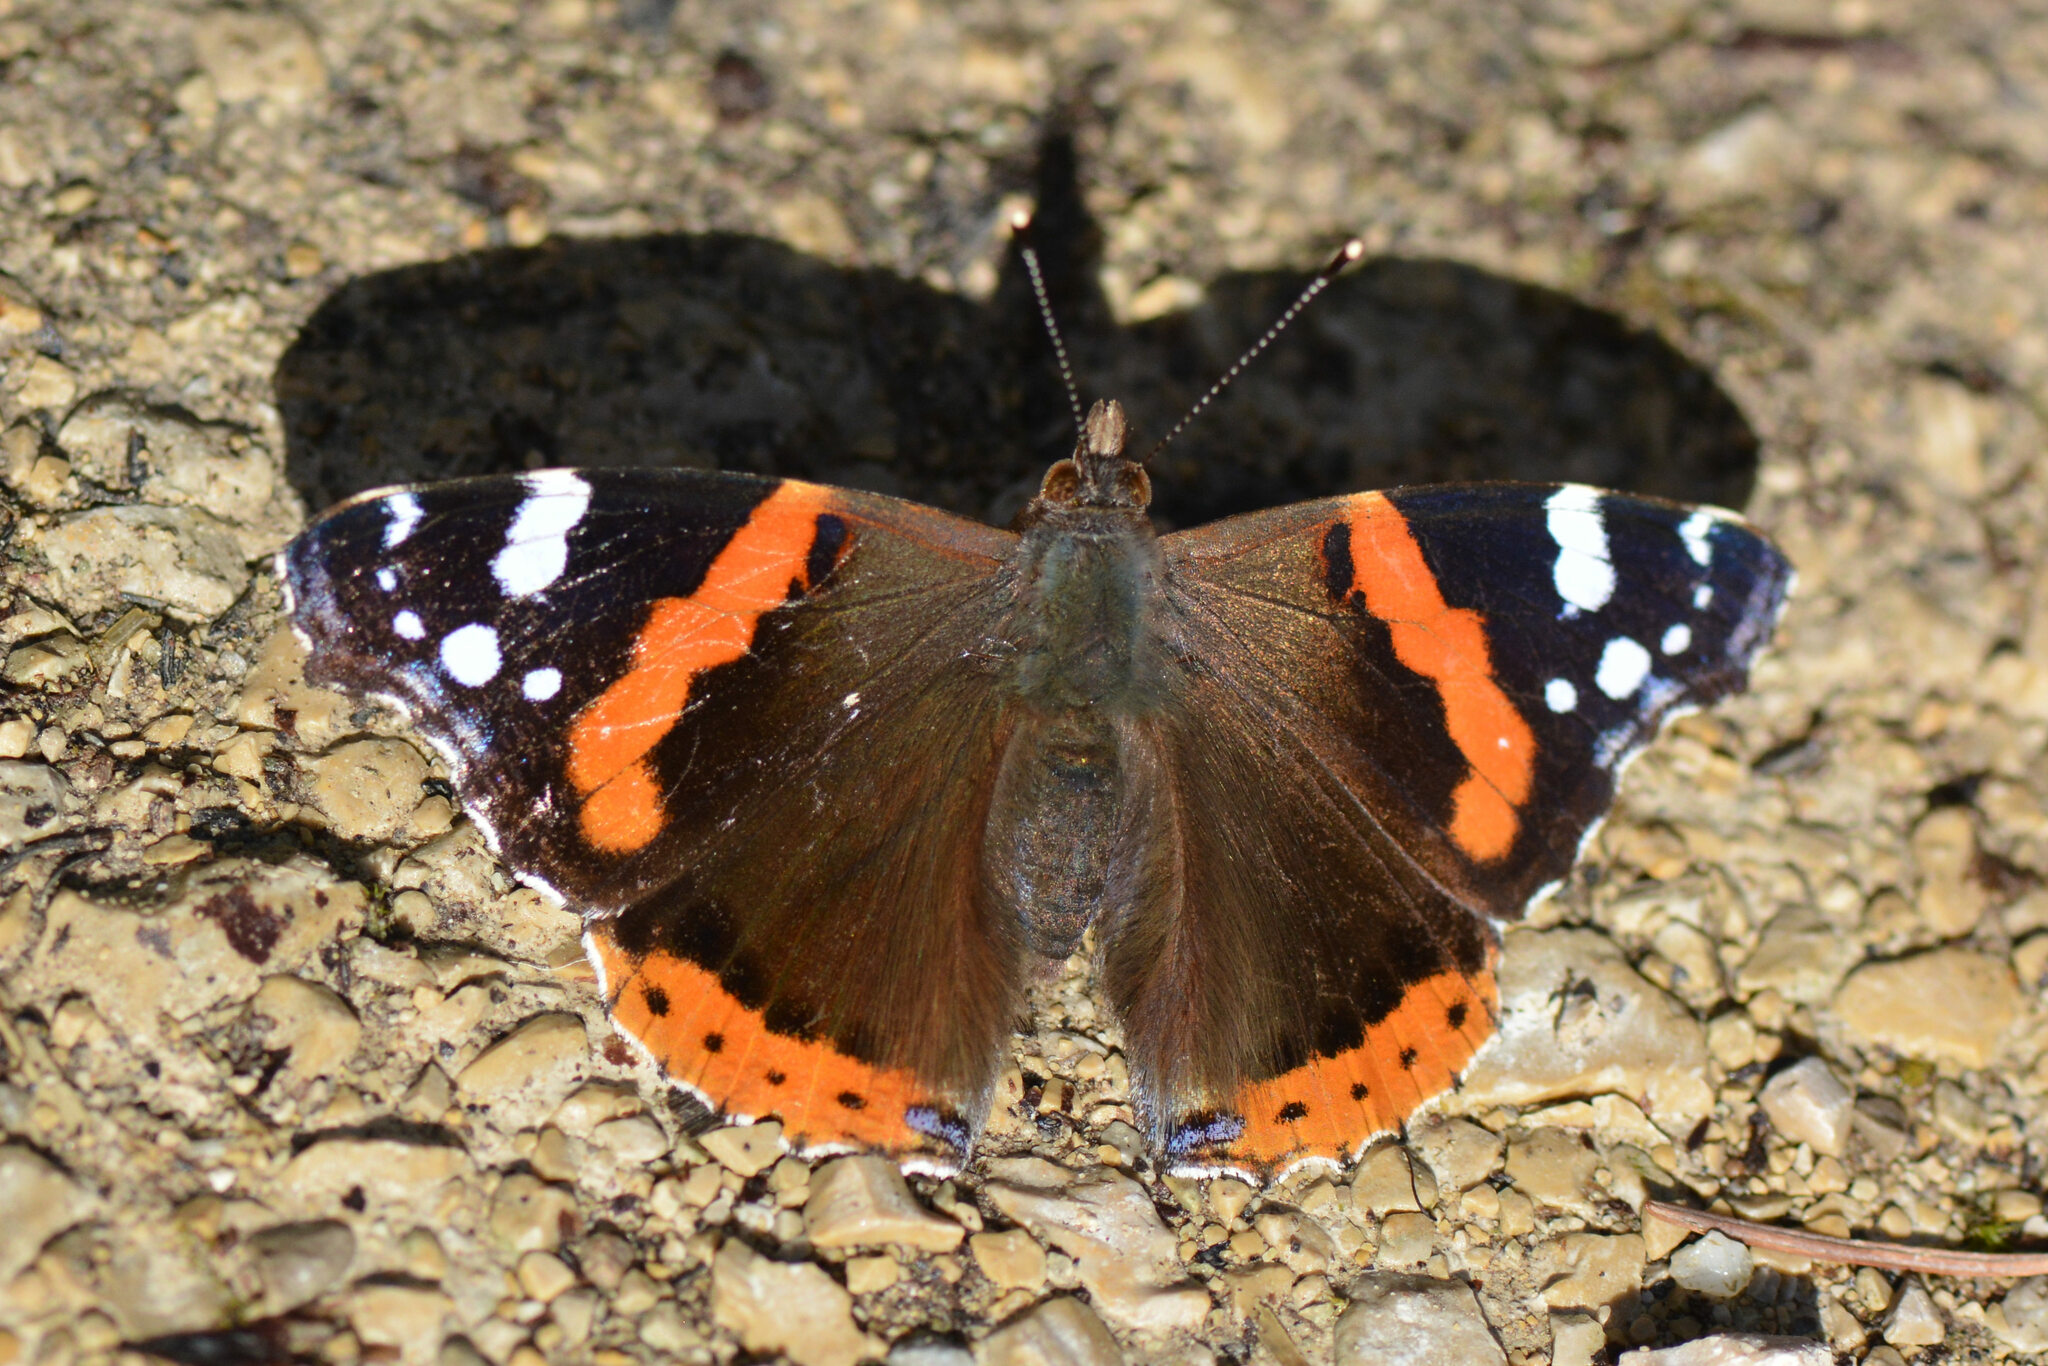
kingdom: Animalia
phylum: Arthropoda
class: Insecta
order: Lepidoptera
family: Nymphalidae
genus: Vanessa
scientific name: Vanessa atalanta
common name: Red admiral
